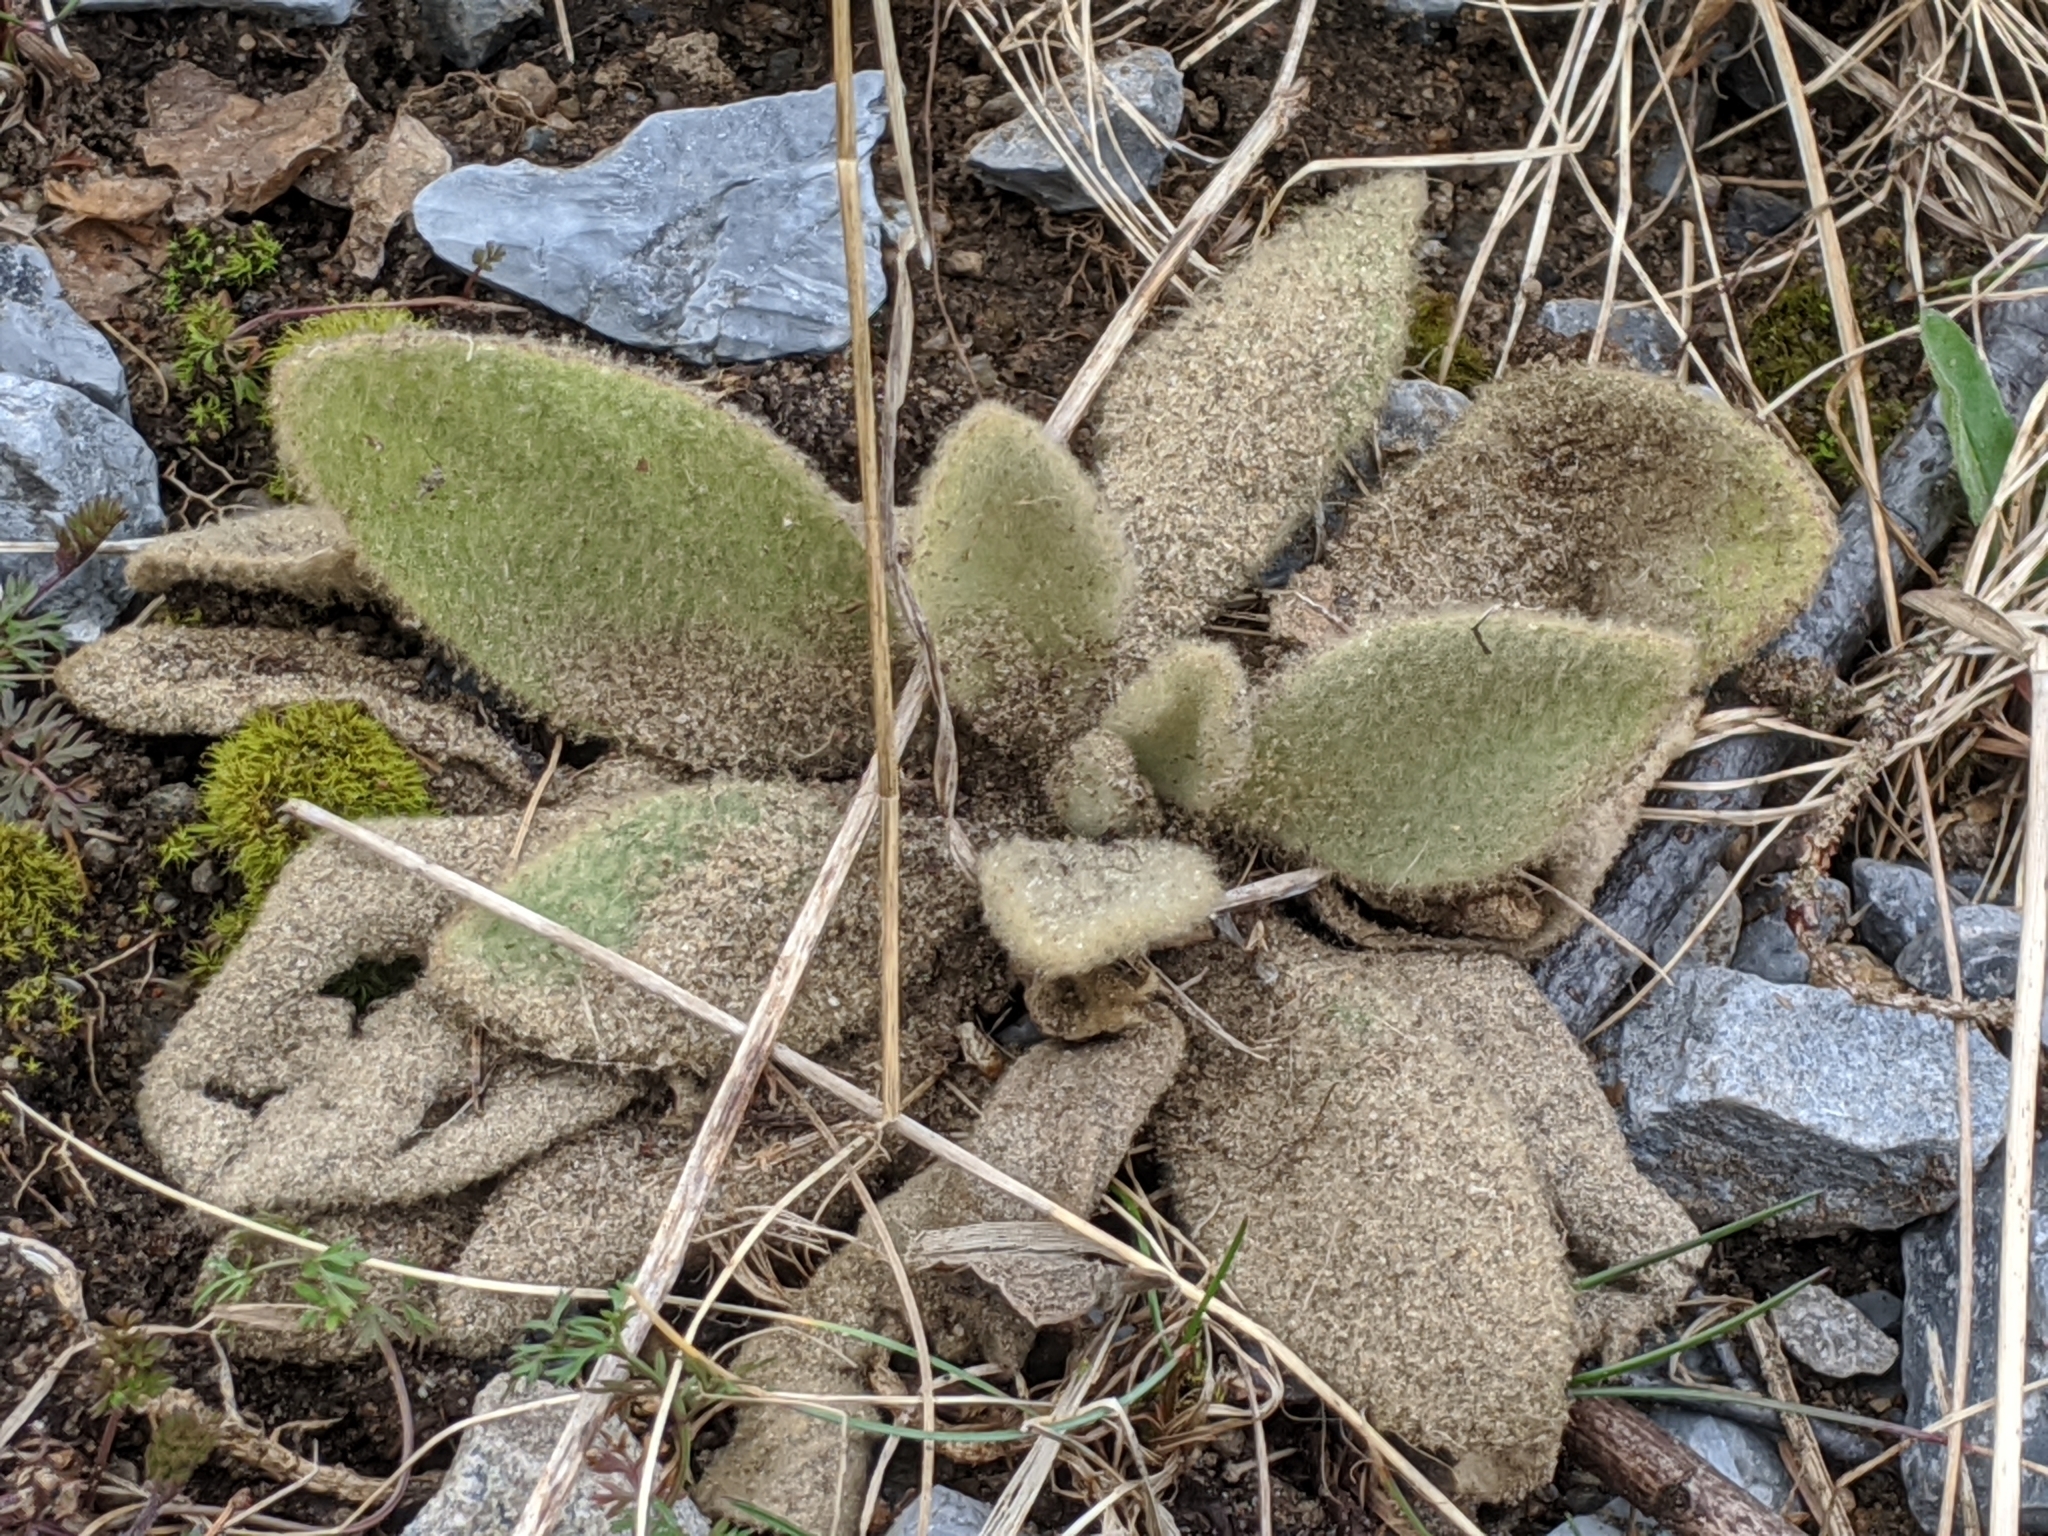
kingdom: Plantae
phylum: Tracheophyta
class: Magnoliopsida
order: Lamiales
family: Scrophulariaceae
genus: Verbascum
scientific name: Verbascum thapsus
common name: Common mullein
